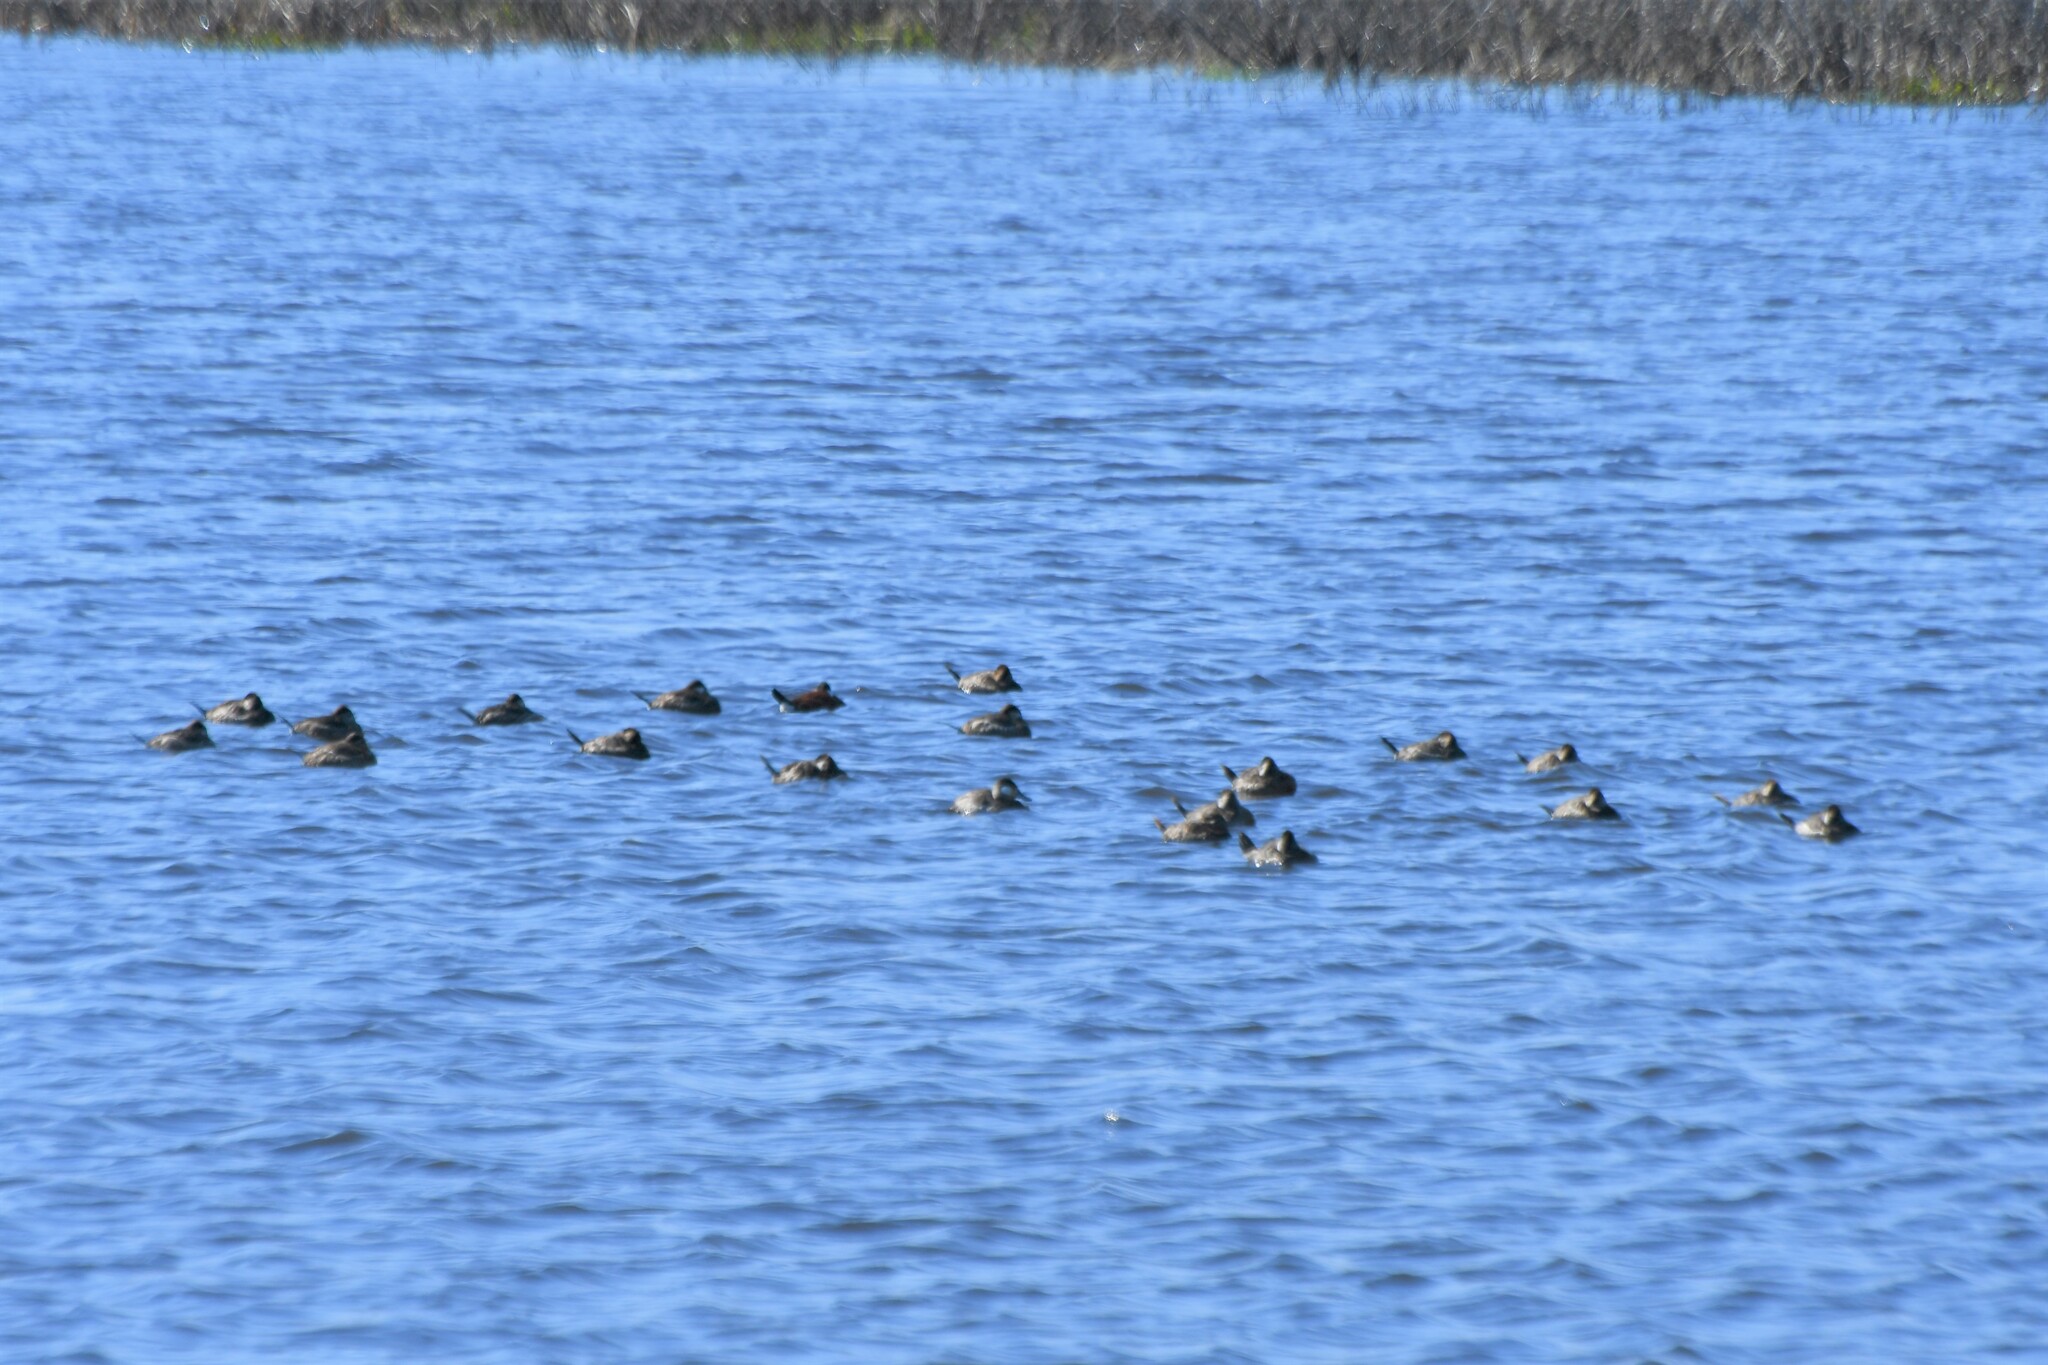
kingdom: Animalia
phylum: Chordata
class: Aves
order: Anseriformes
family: Anatidae
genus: Oxyura
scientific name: Oxyura jamaicensis
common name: Ruddy duck
